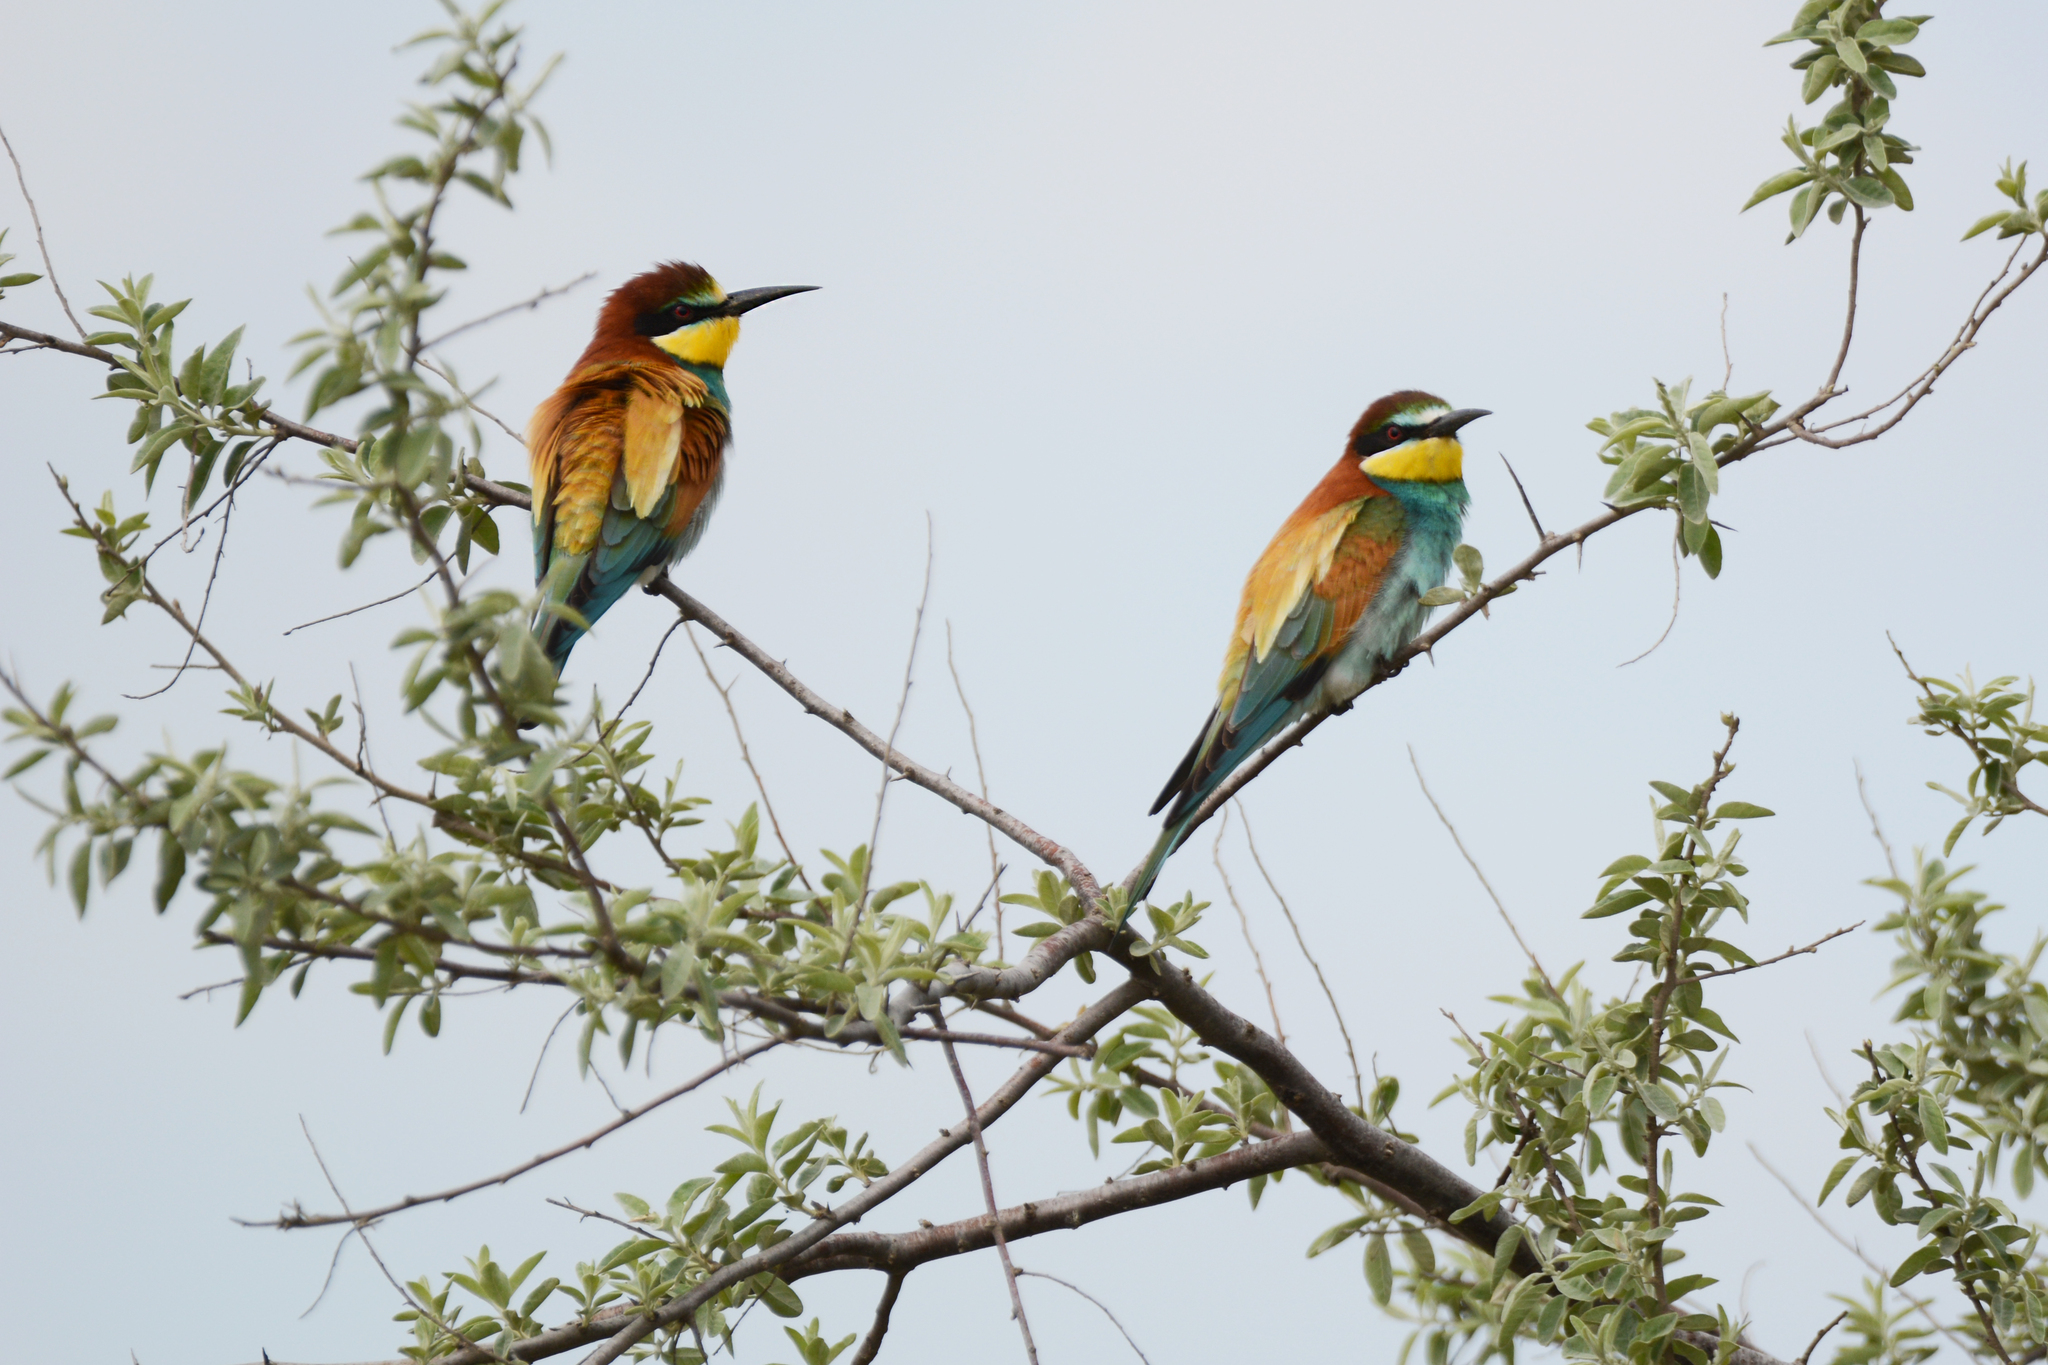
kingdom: Animalia
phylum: Chordata
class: Aves
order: Coraciiformes
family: Meropidae
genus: Merops
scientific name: Merops apiaster
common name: European bee-eater
